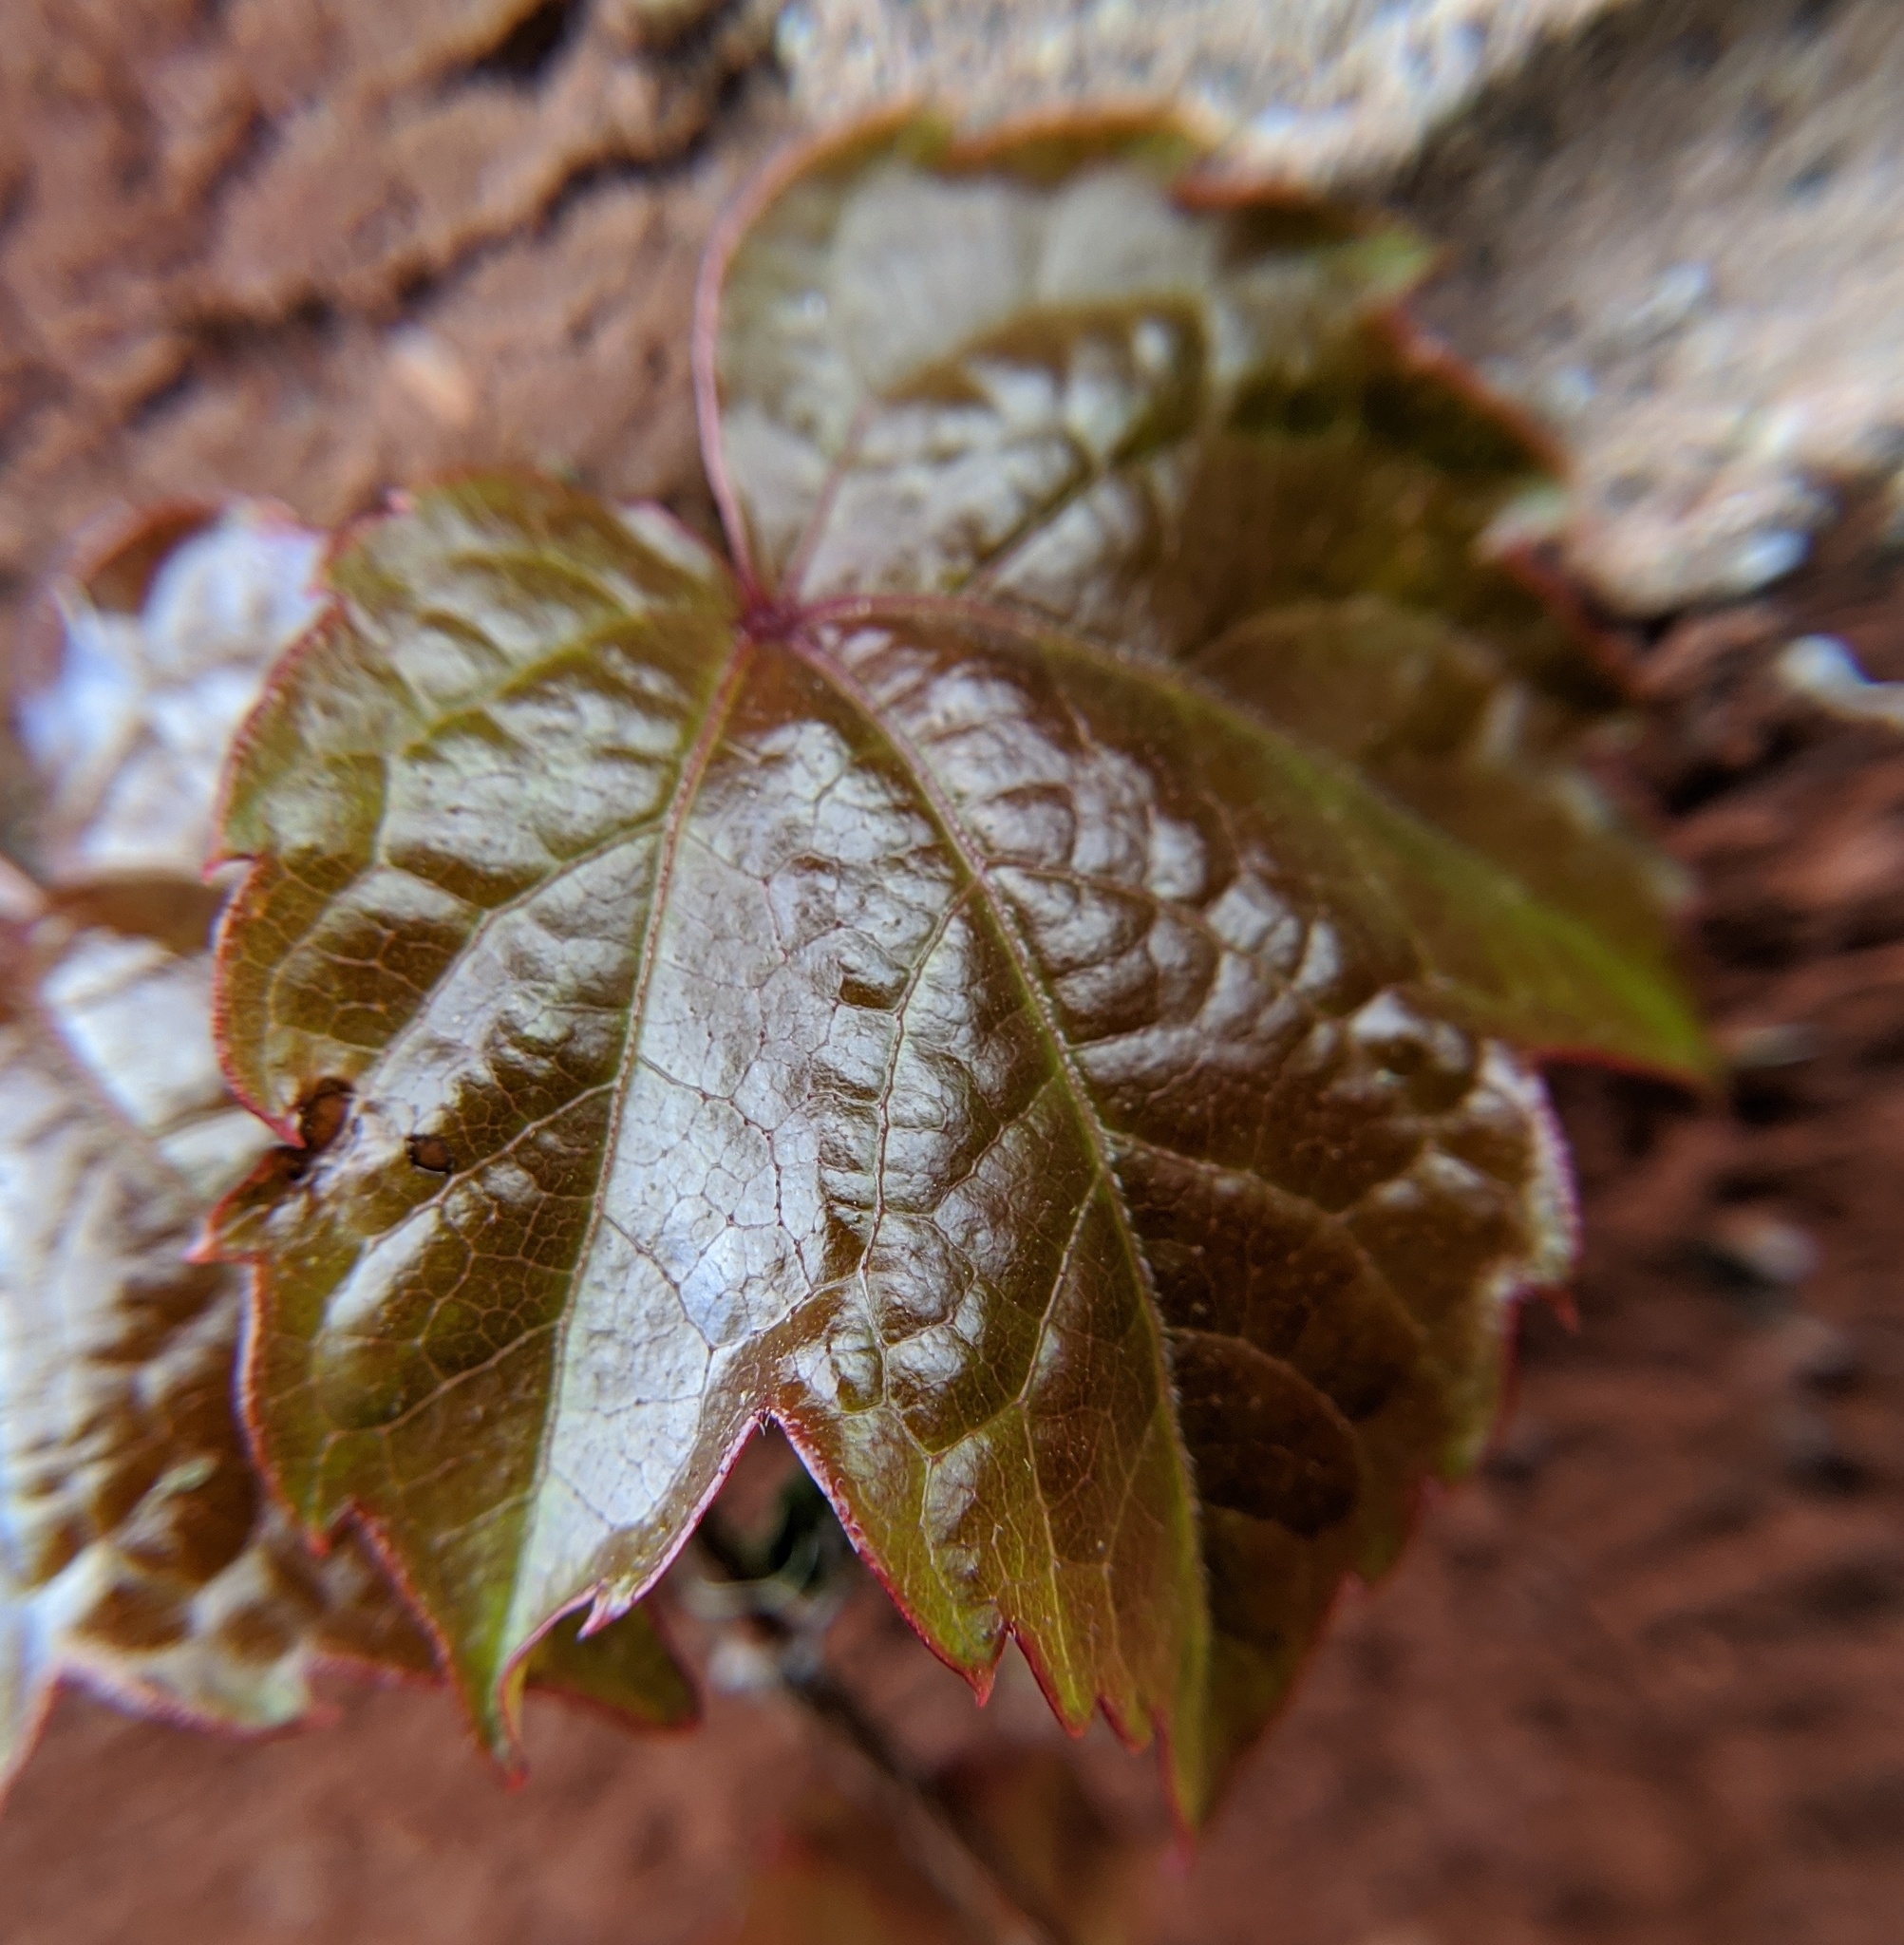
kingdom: Plantae
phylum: Tracheophyta
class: Magnoliopsida
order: Vitales
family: Vitaceae
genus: Parthenocissus
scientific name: Parthenocissus tricuspidata
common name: Boston ivy
